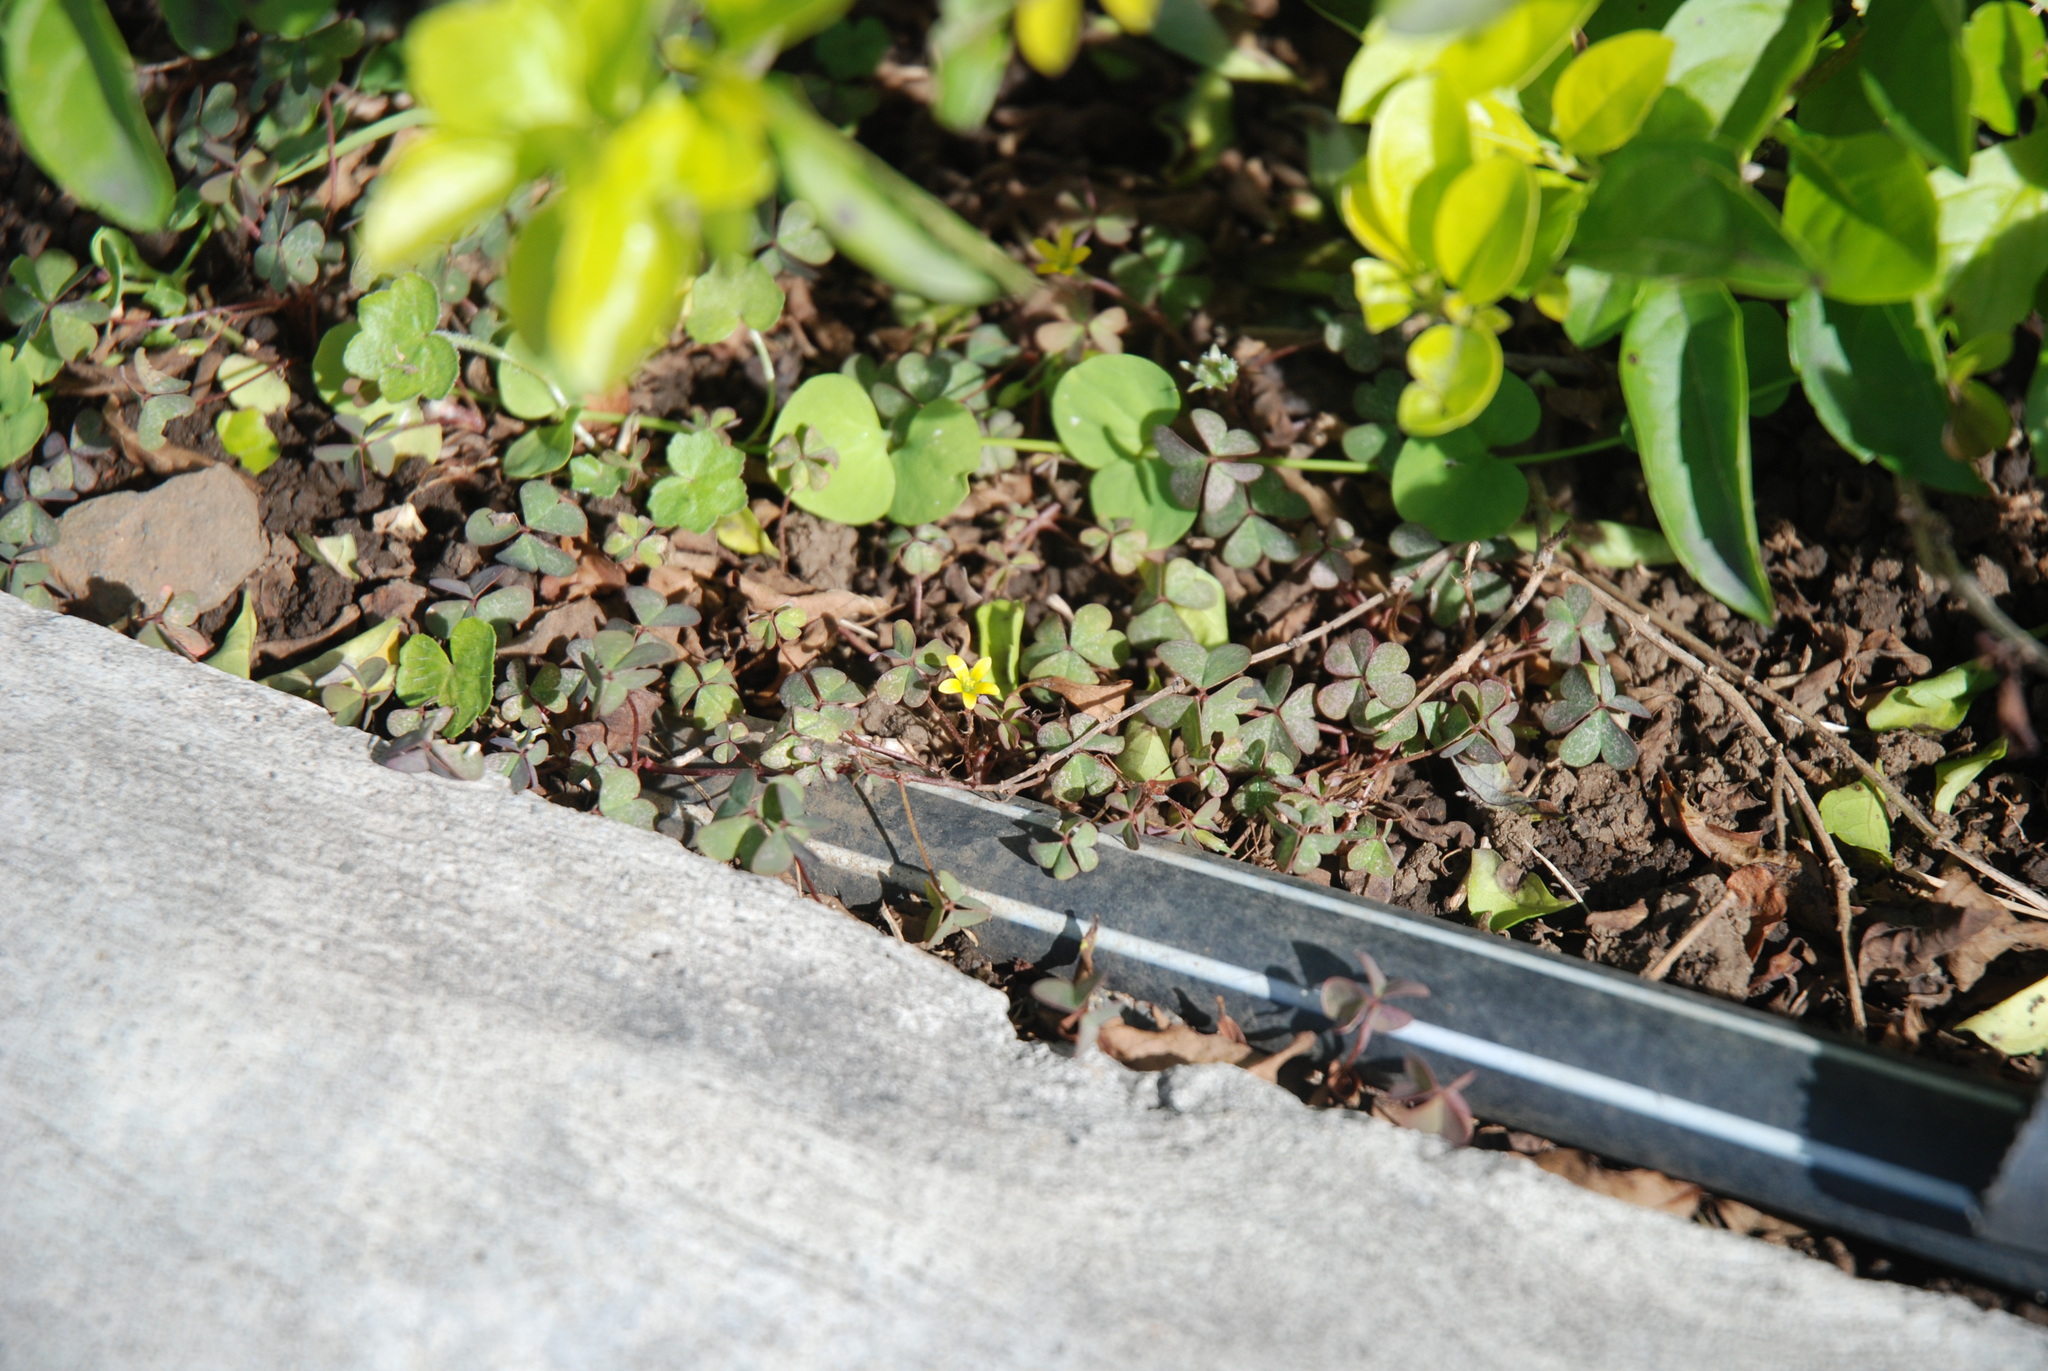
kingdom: Plantae
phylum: Tracheophyta
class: Magnoliopsida
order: Oxalidales
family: Oxalidaceae
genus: Oxalis
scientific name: Oxalis corniculata
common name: Procumbent yellow-sorrel
